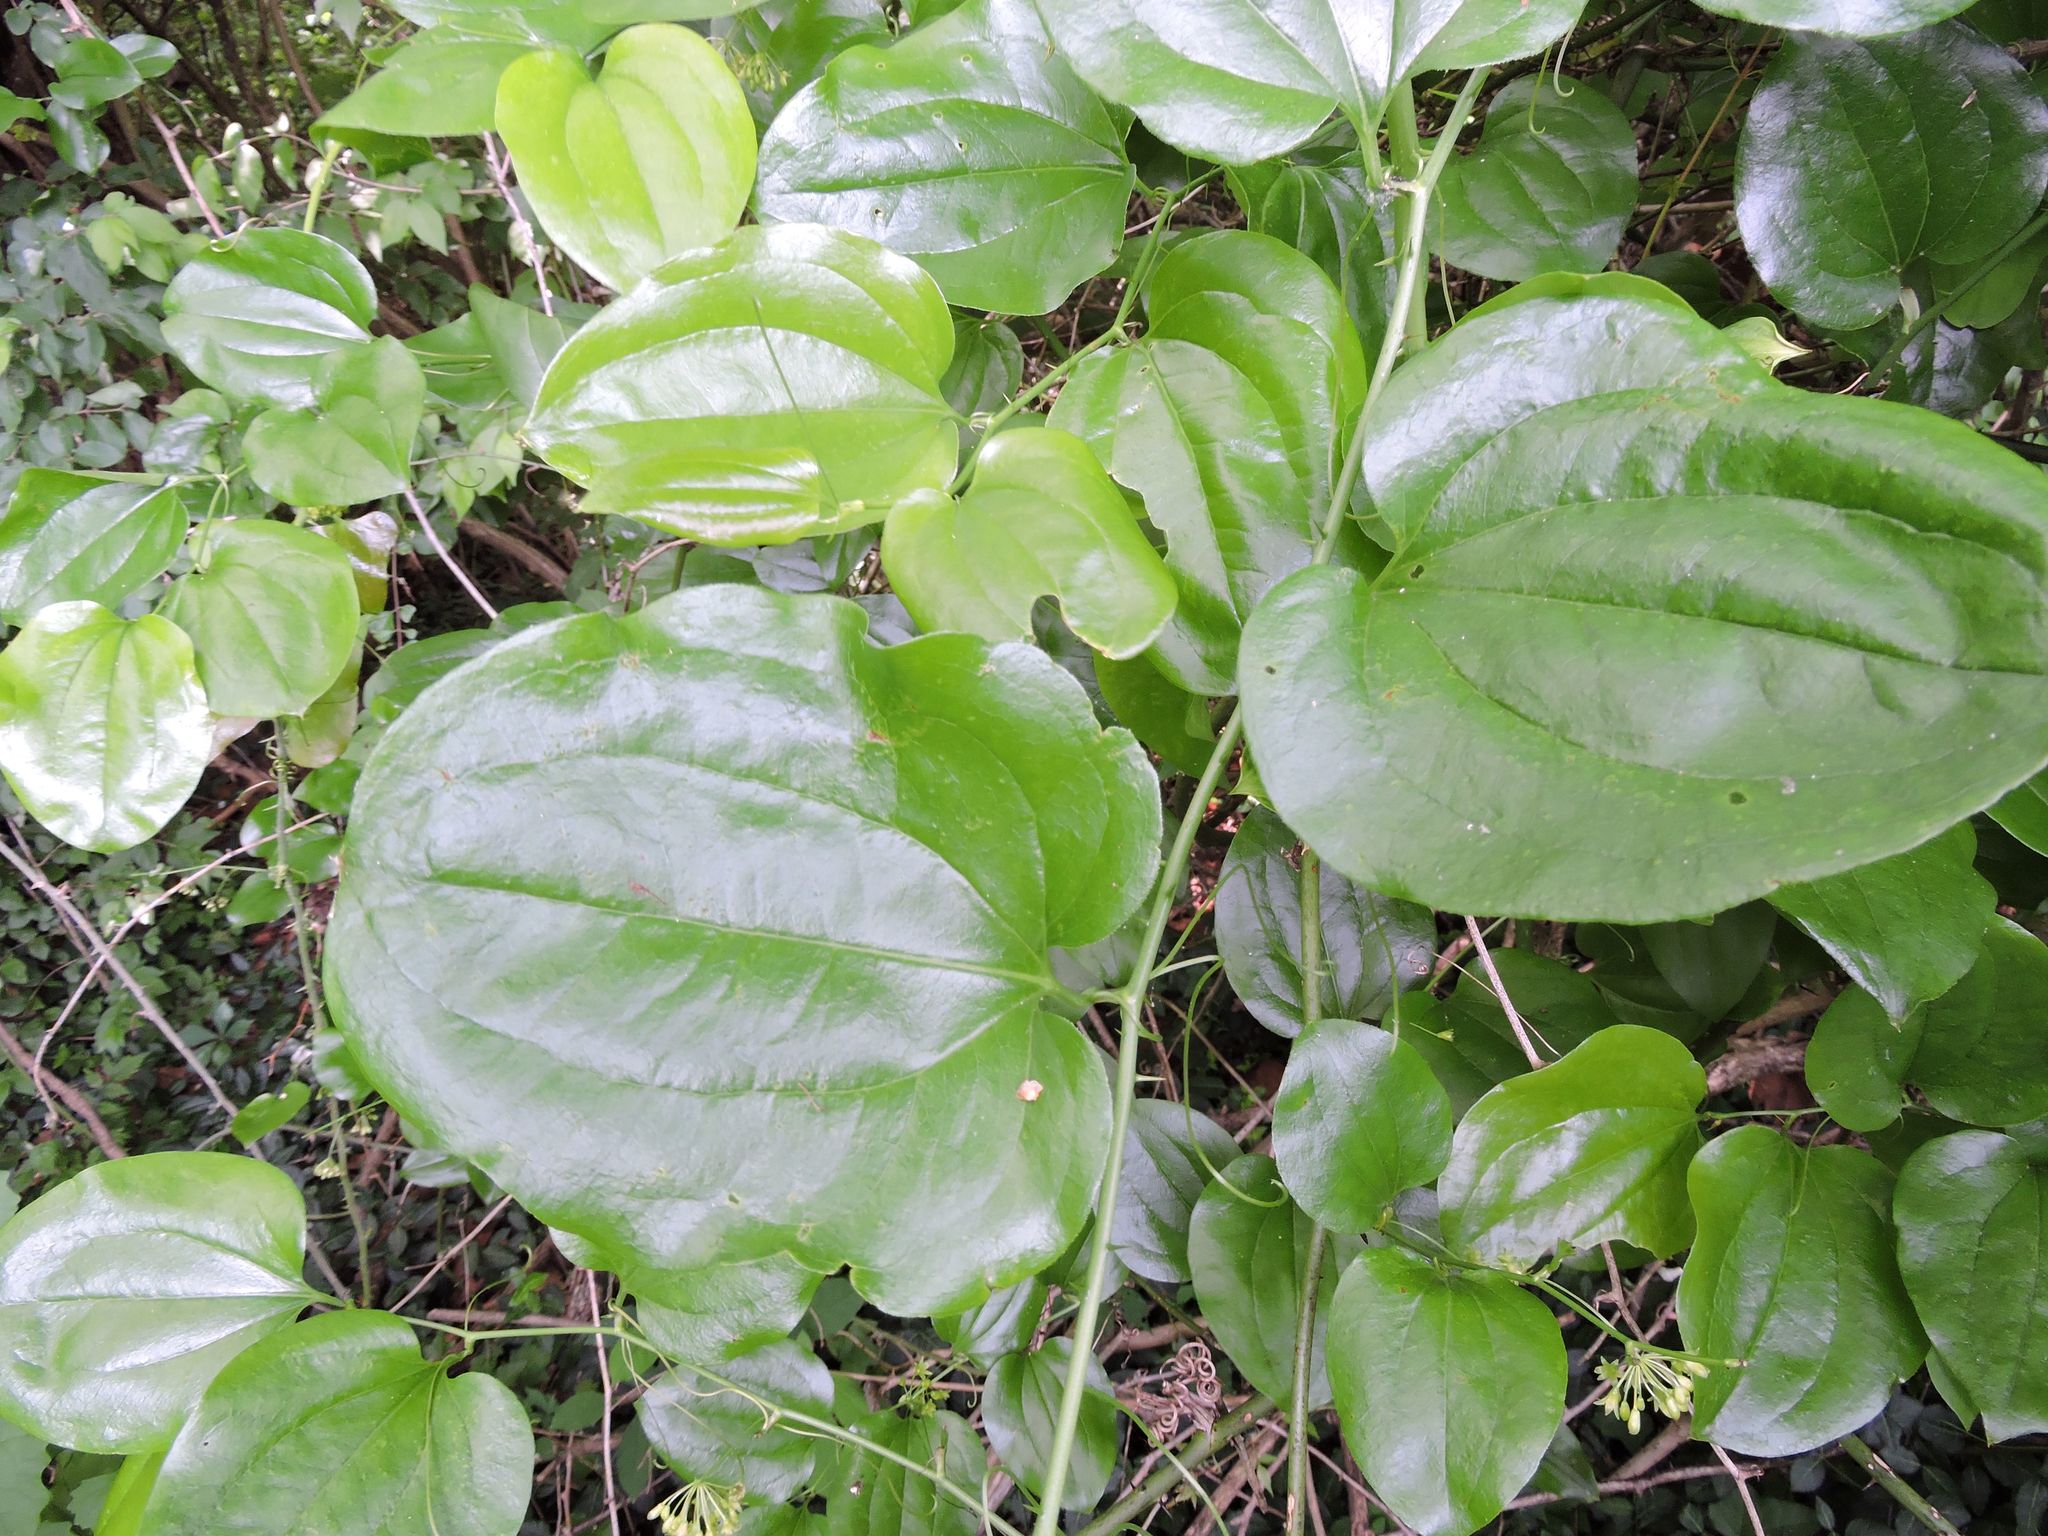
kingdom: Plantae
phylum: Tracheophyta
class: Liliopsida
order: Liliales
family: Smilacaceae
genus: Smilax
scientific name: Smilax rotundifolia
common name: Bullbriar
